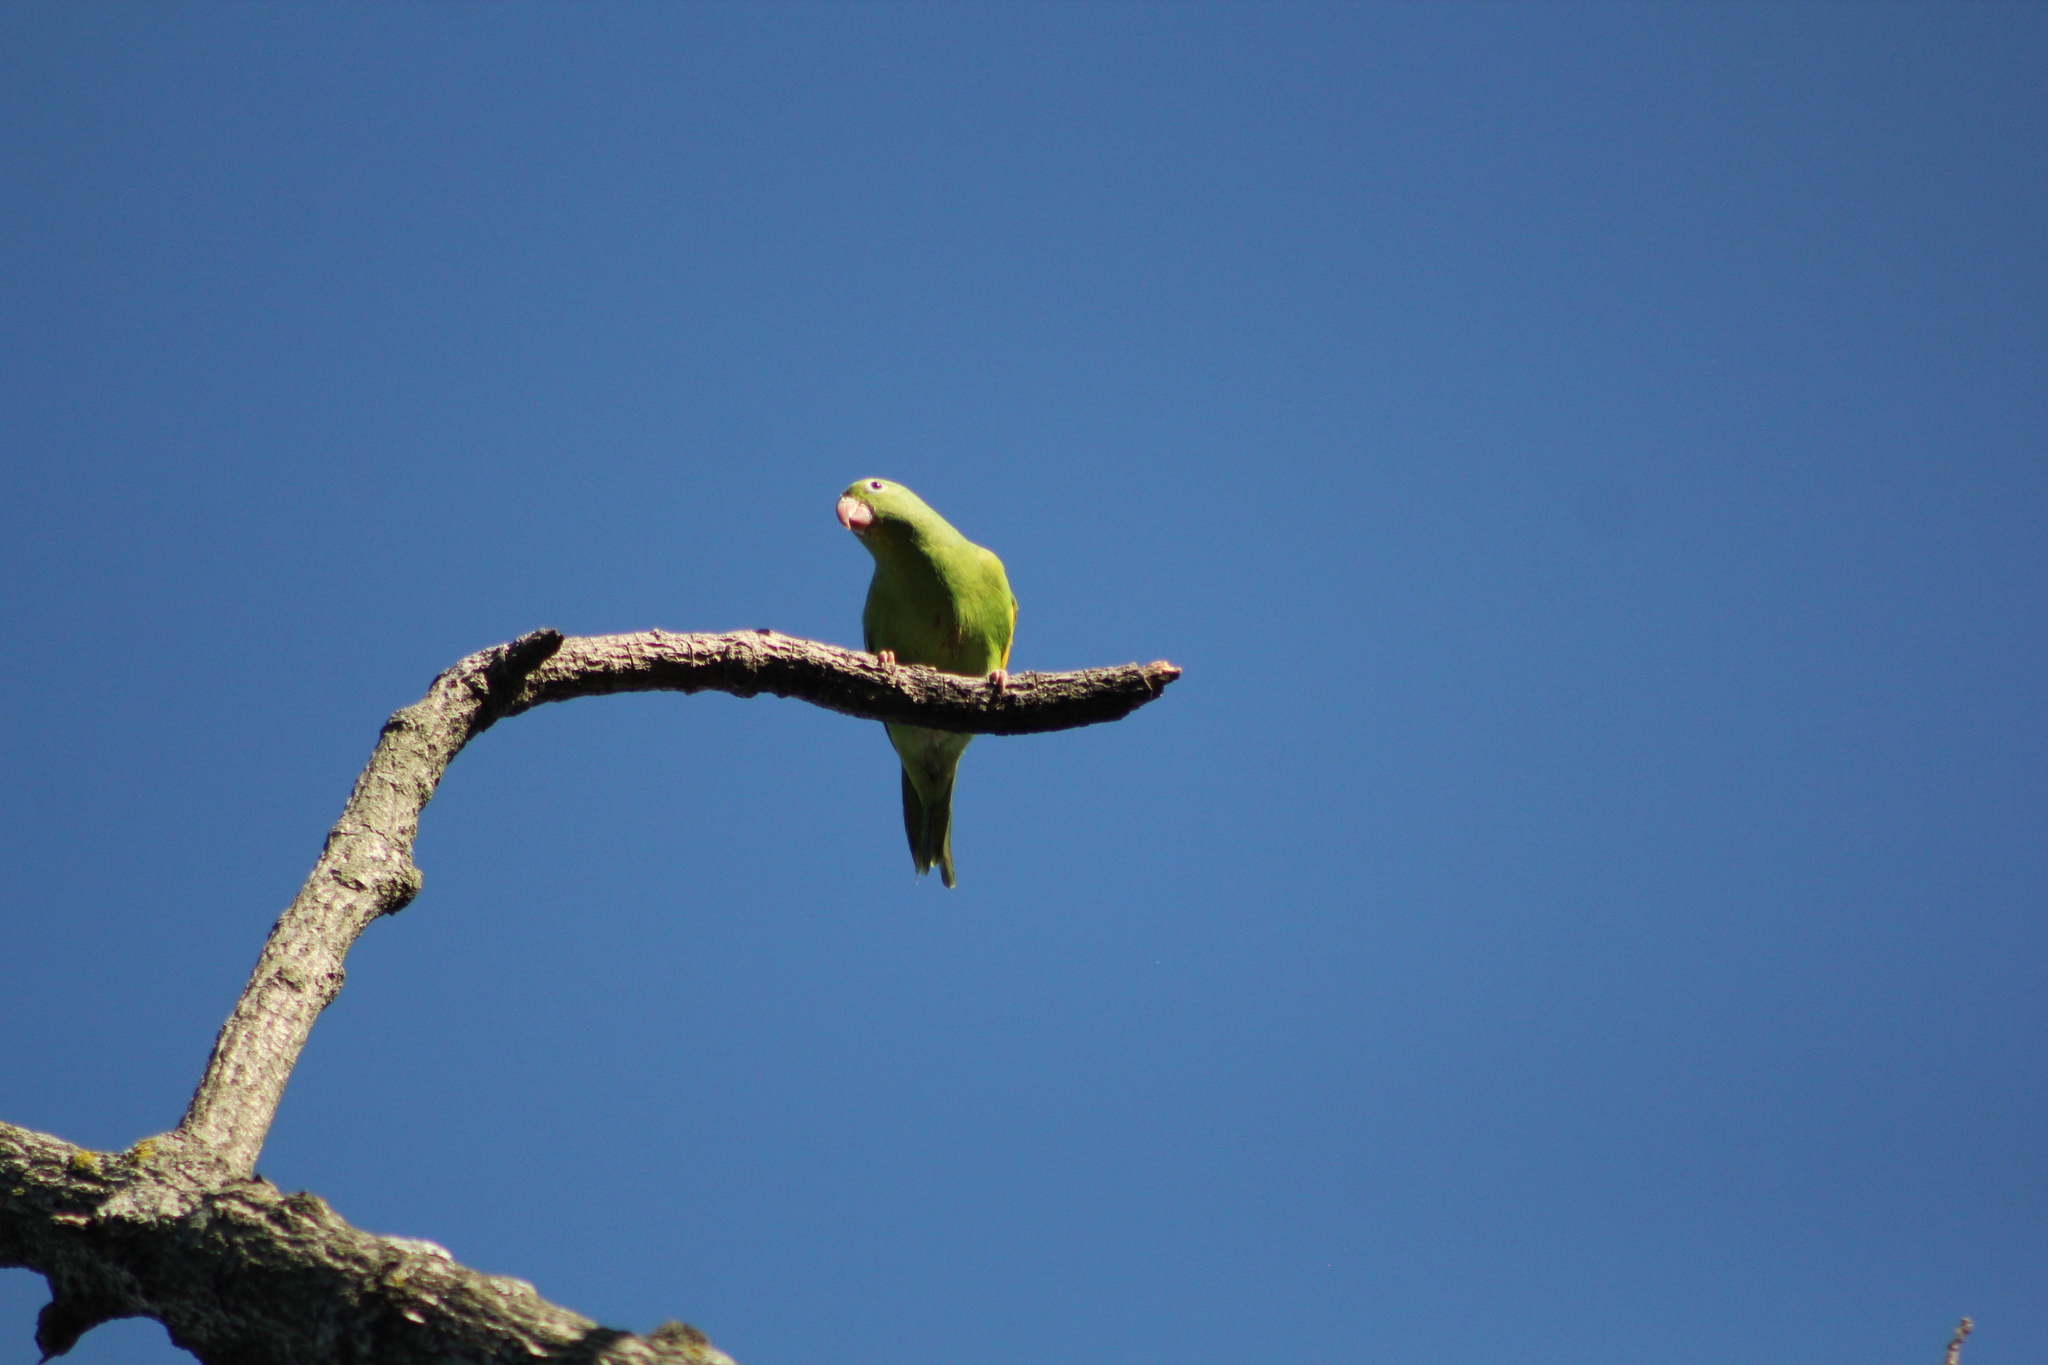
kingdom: Animalia
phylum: Chordata
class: Aves
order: Psittaciformes
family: Psittacidae
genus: Brotogeris
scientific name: Brotogeris chiriri
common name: Yellow-chevroned parakeet
